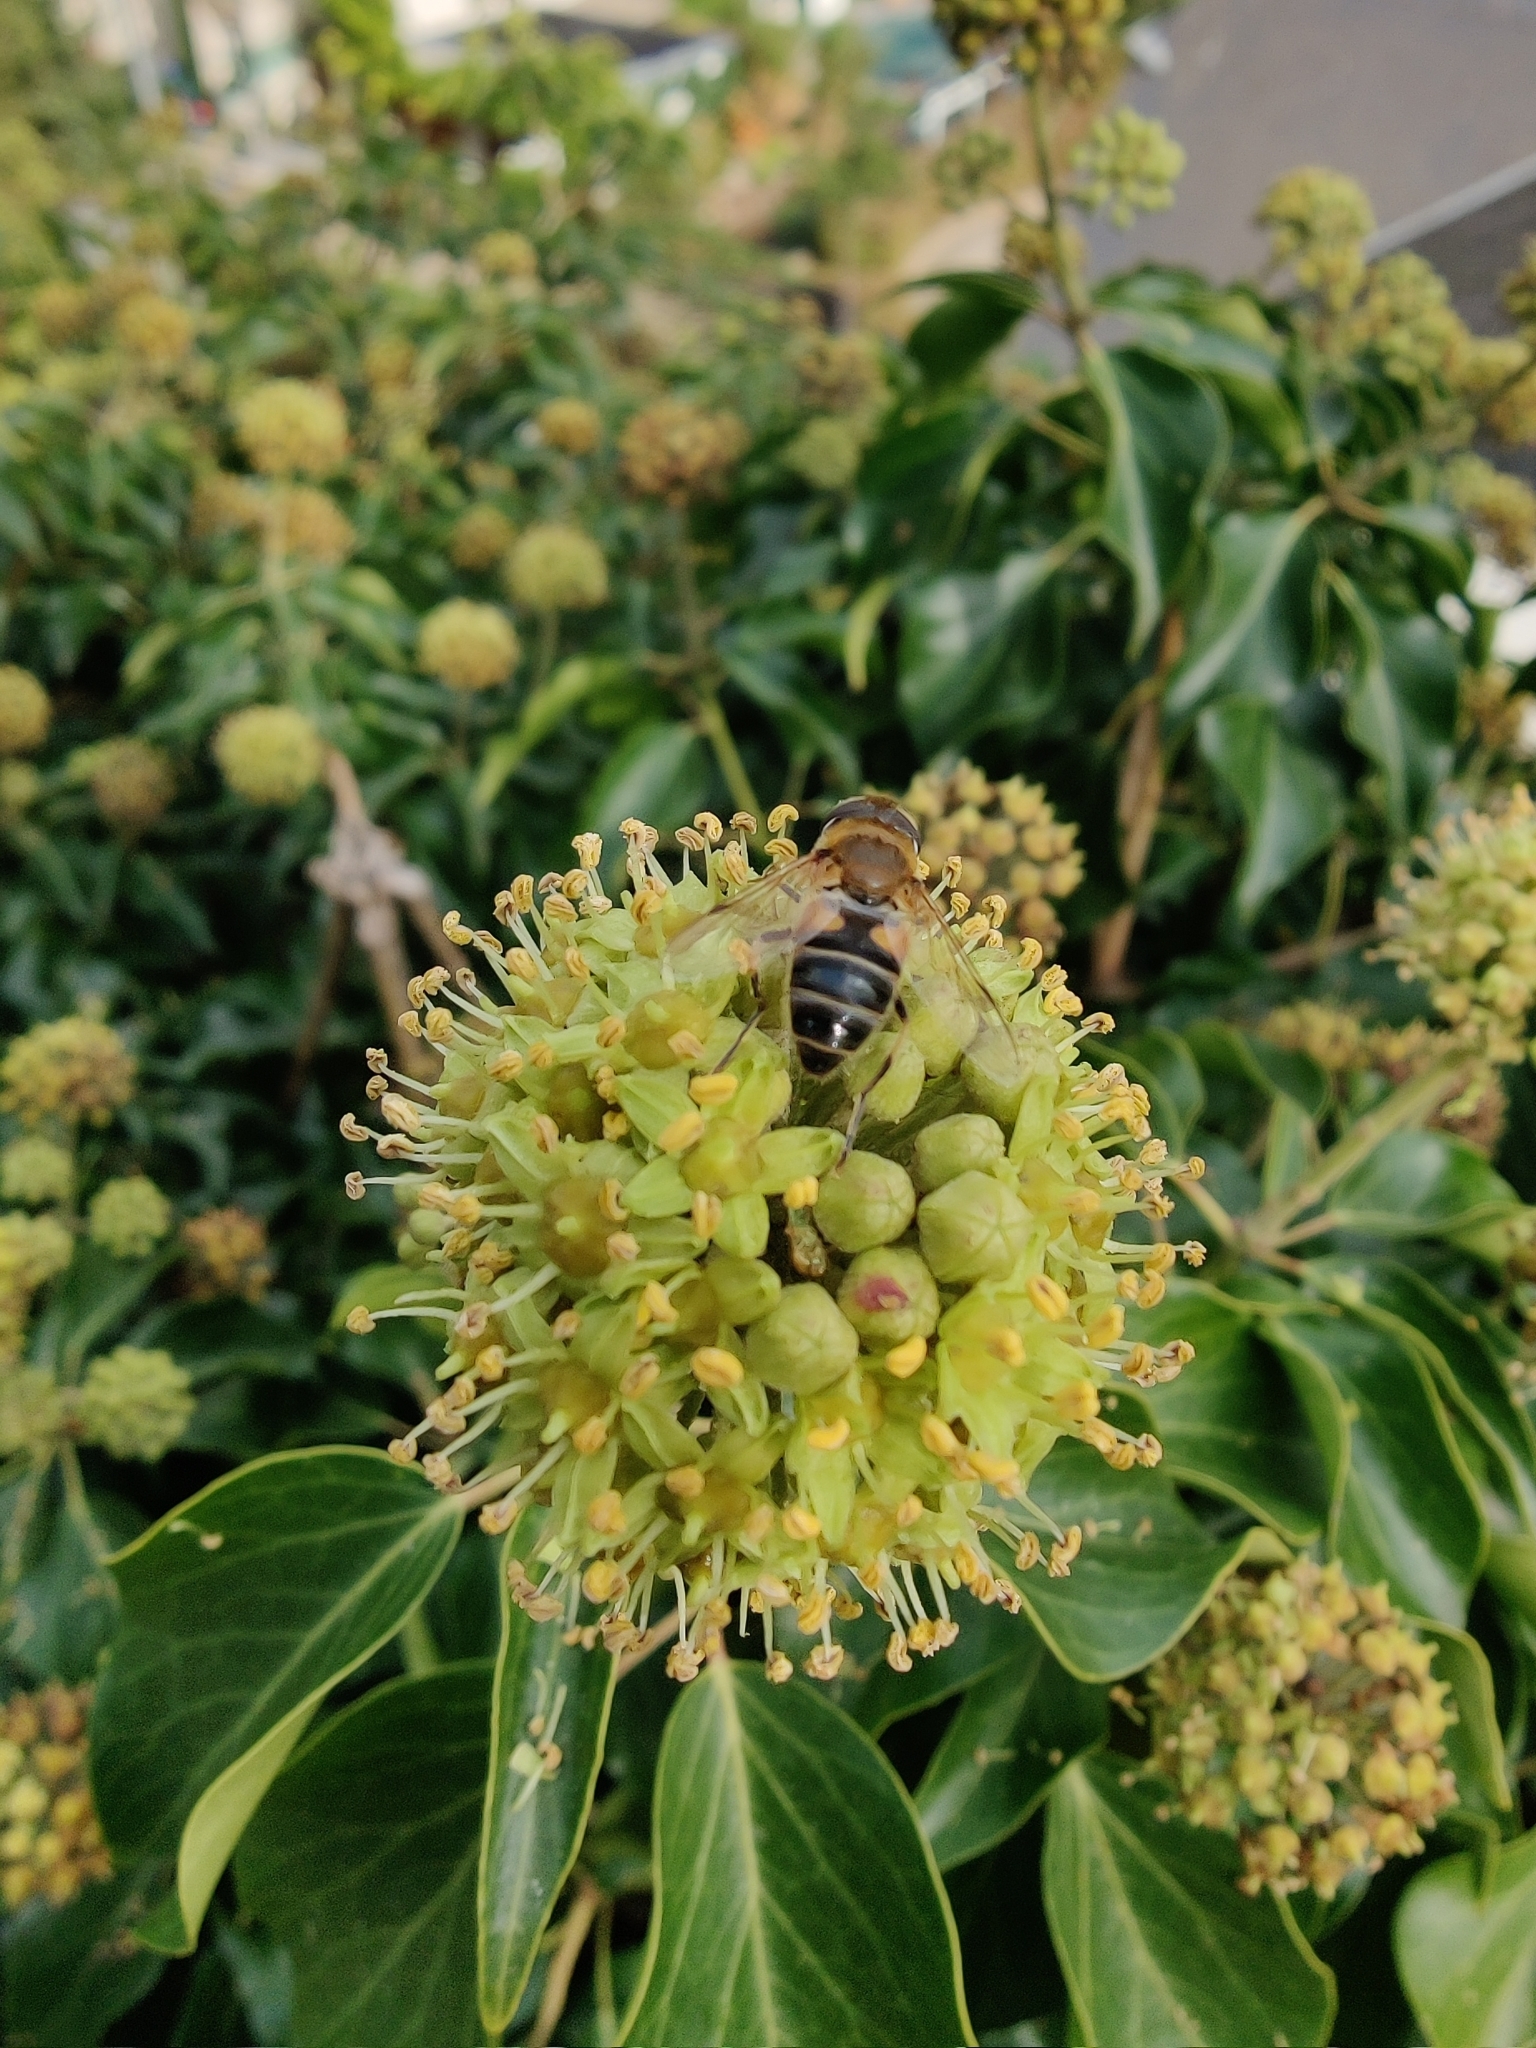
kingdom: Animalia
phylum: Arthropoda
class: Insecta
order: Diptera
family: Syrphidae
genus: Eristalis
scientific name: Eristalis pertinax
